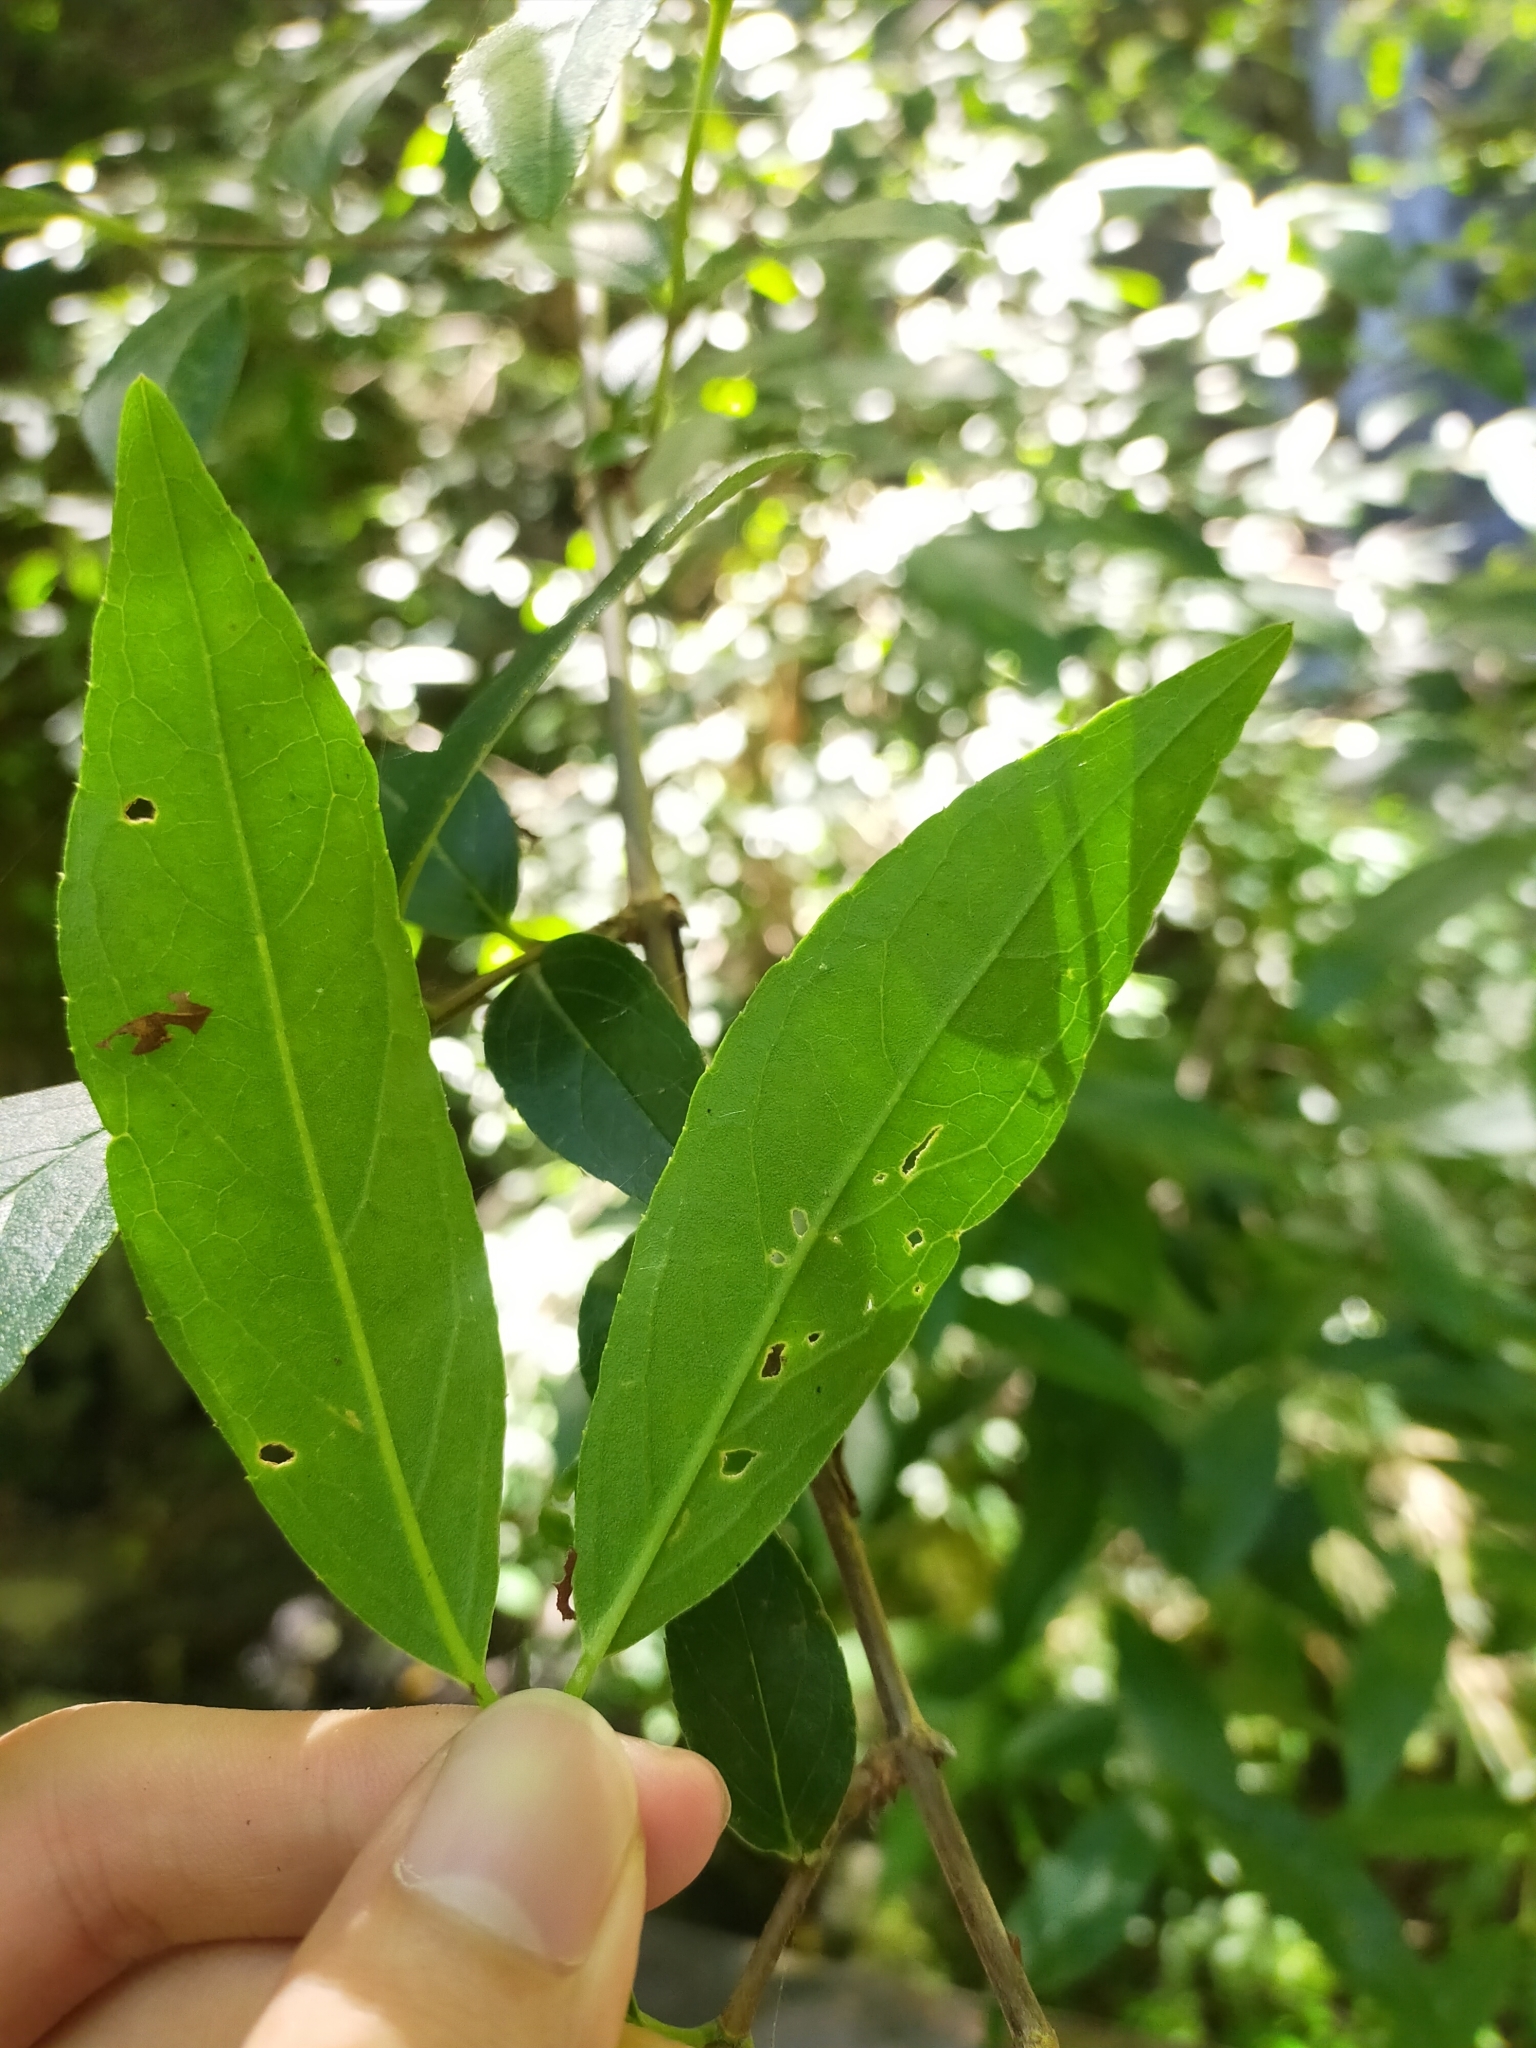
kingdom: Plantae
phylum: Tracheophyta
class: Magnoliopsida
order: Cornales
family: Hydrangeaceae
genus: Deutzia
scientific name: Deutzia taiwanensis
